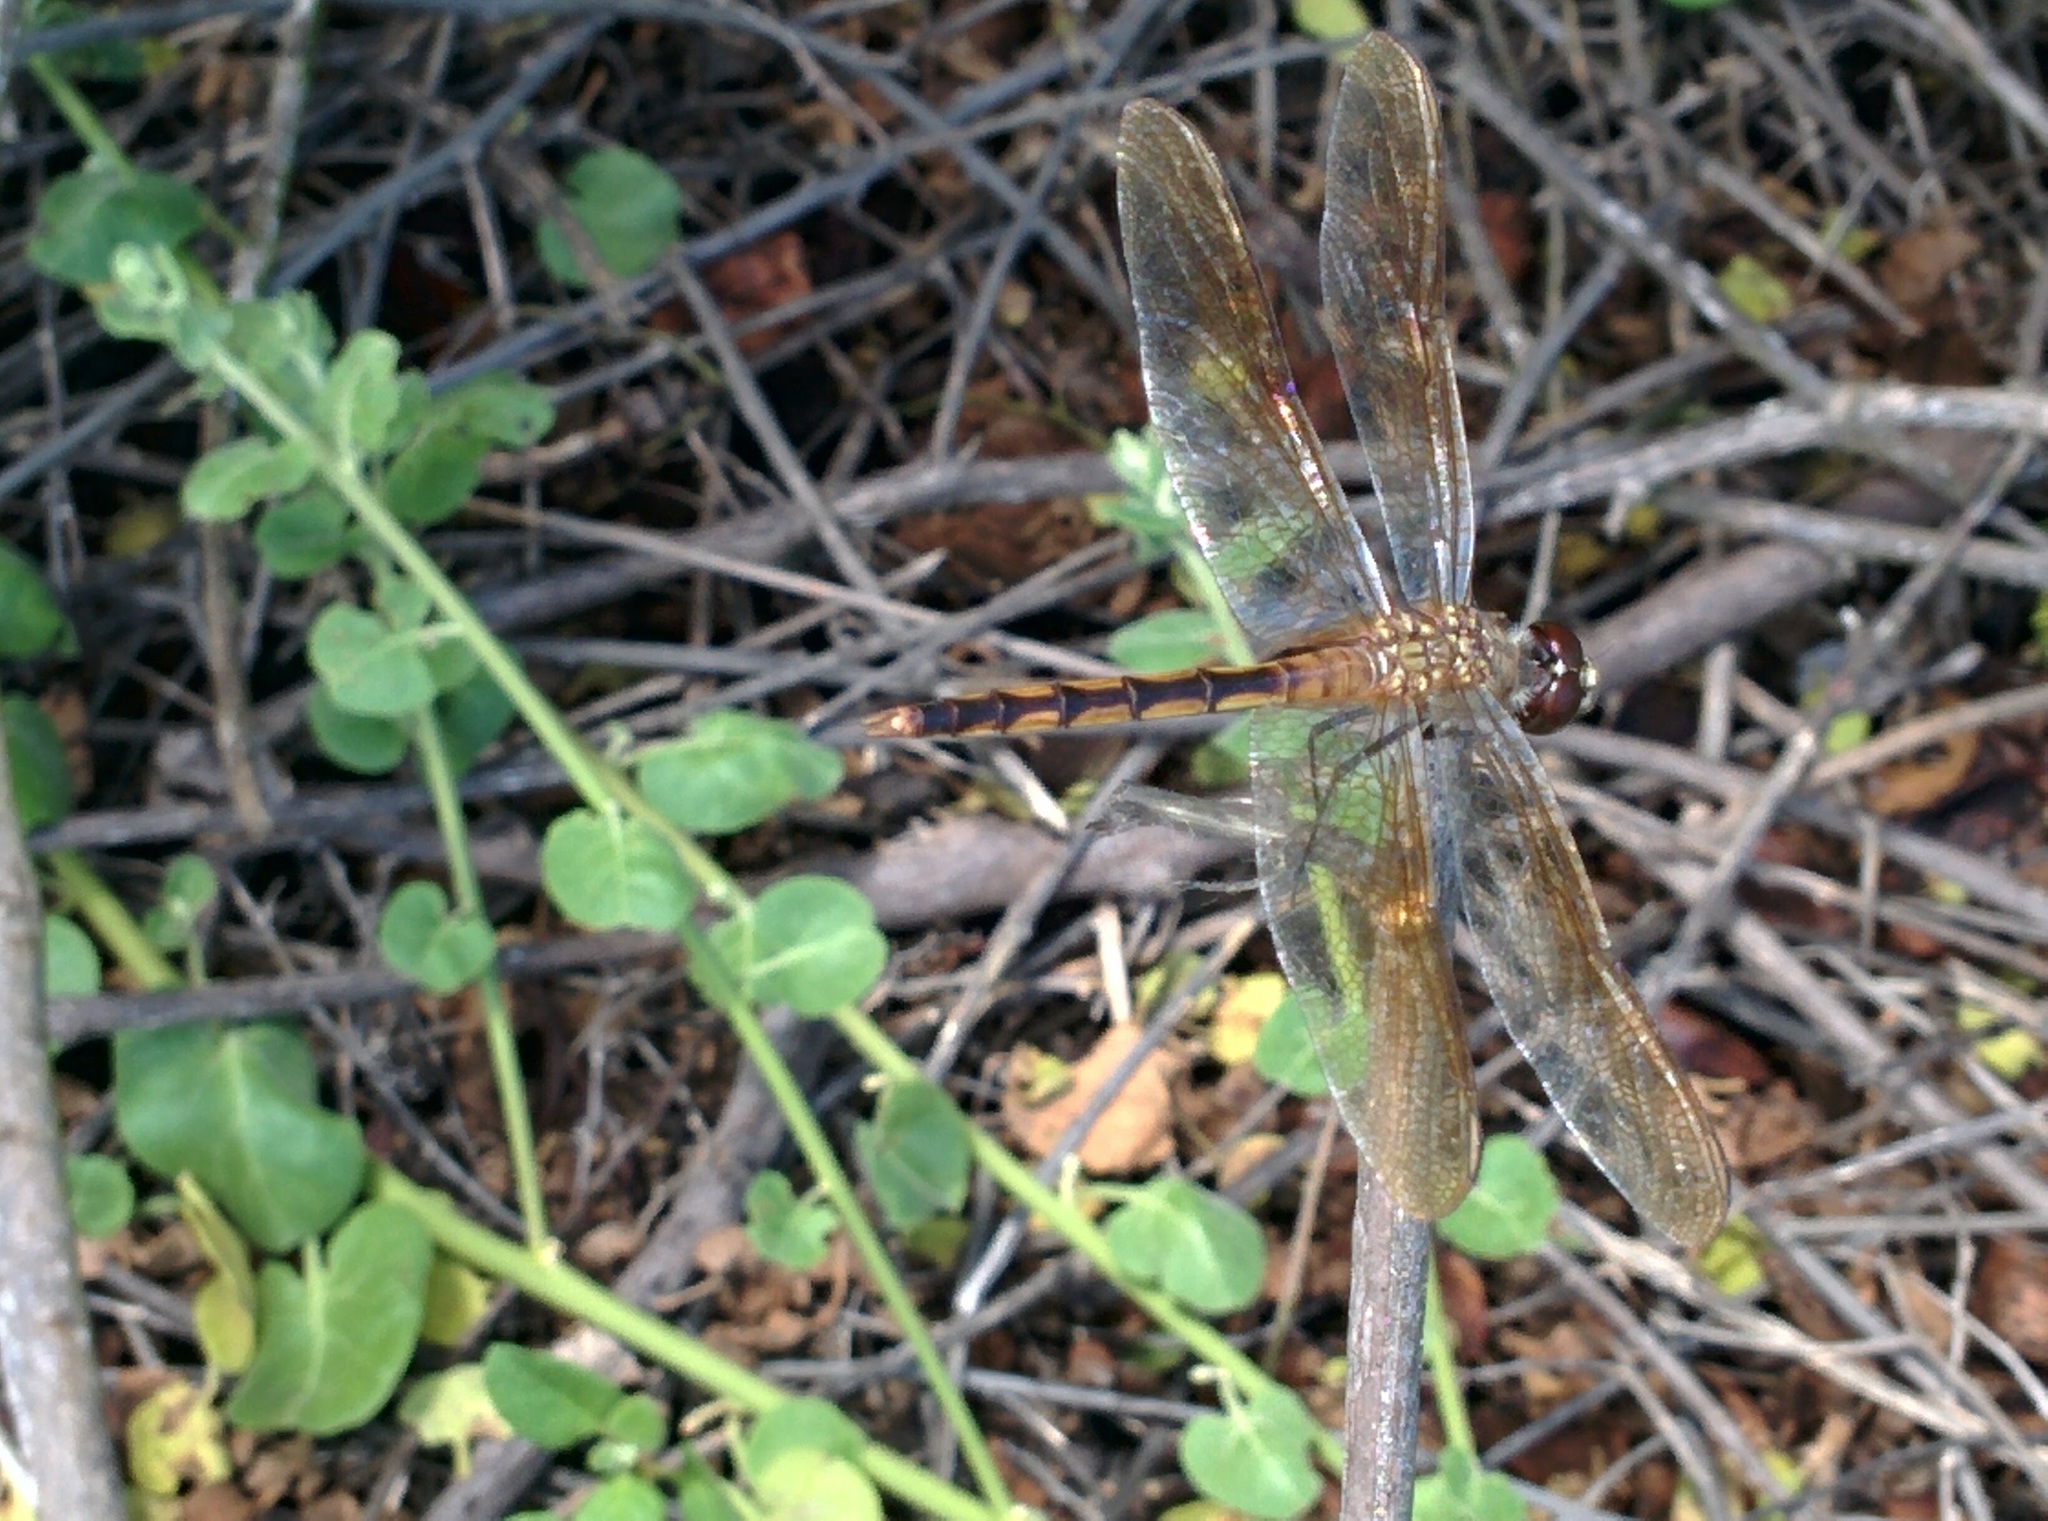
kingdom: Animalia
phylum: Arthropoda
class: Insecta
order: Odonata
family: Libellulidae
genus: Brachymesia
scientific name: Brachymesia herbida
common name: Tawny pennant
